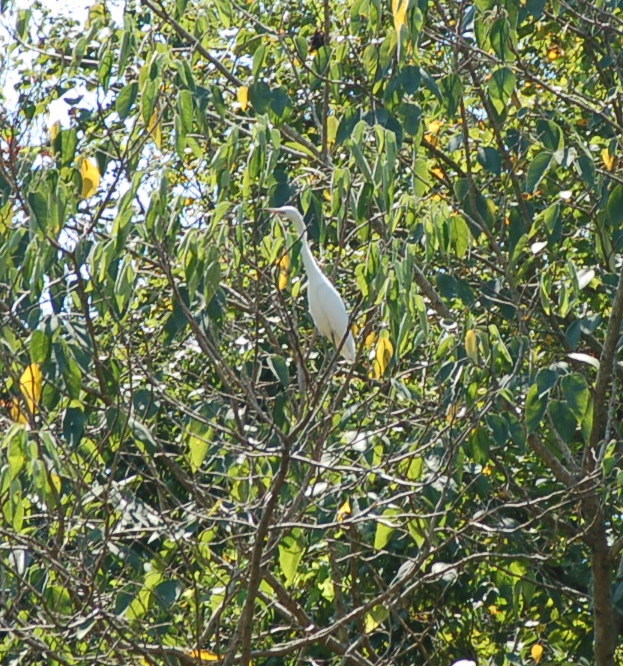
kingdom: Animalia
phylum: Chordata
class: Aves
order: Pelecaniformes
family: Ardeidae
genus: Ardea
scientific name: Ardea alba
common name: Great egret
